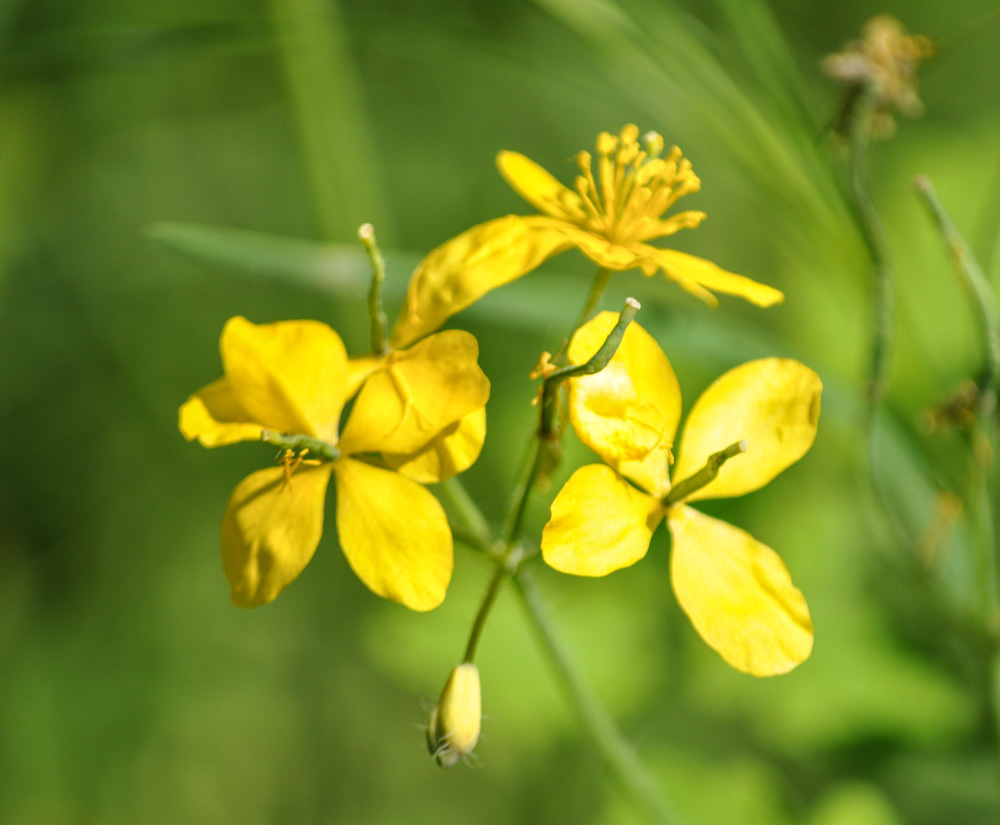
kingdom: Plantae
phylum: Tracheophyta
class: Magnoliopsida
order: Ranunculales
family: Papaveraceae
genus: Chelidonium
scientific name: Chelidonium majus
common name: Greater celandine
